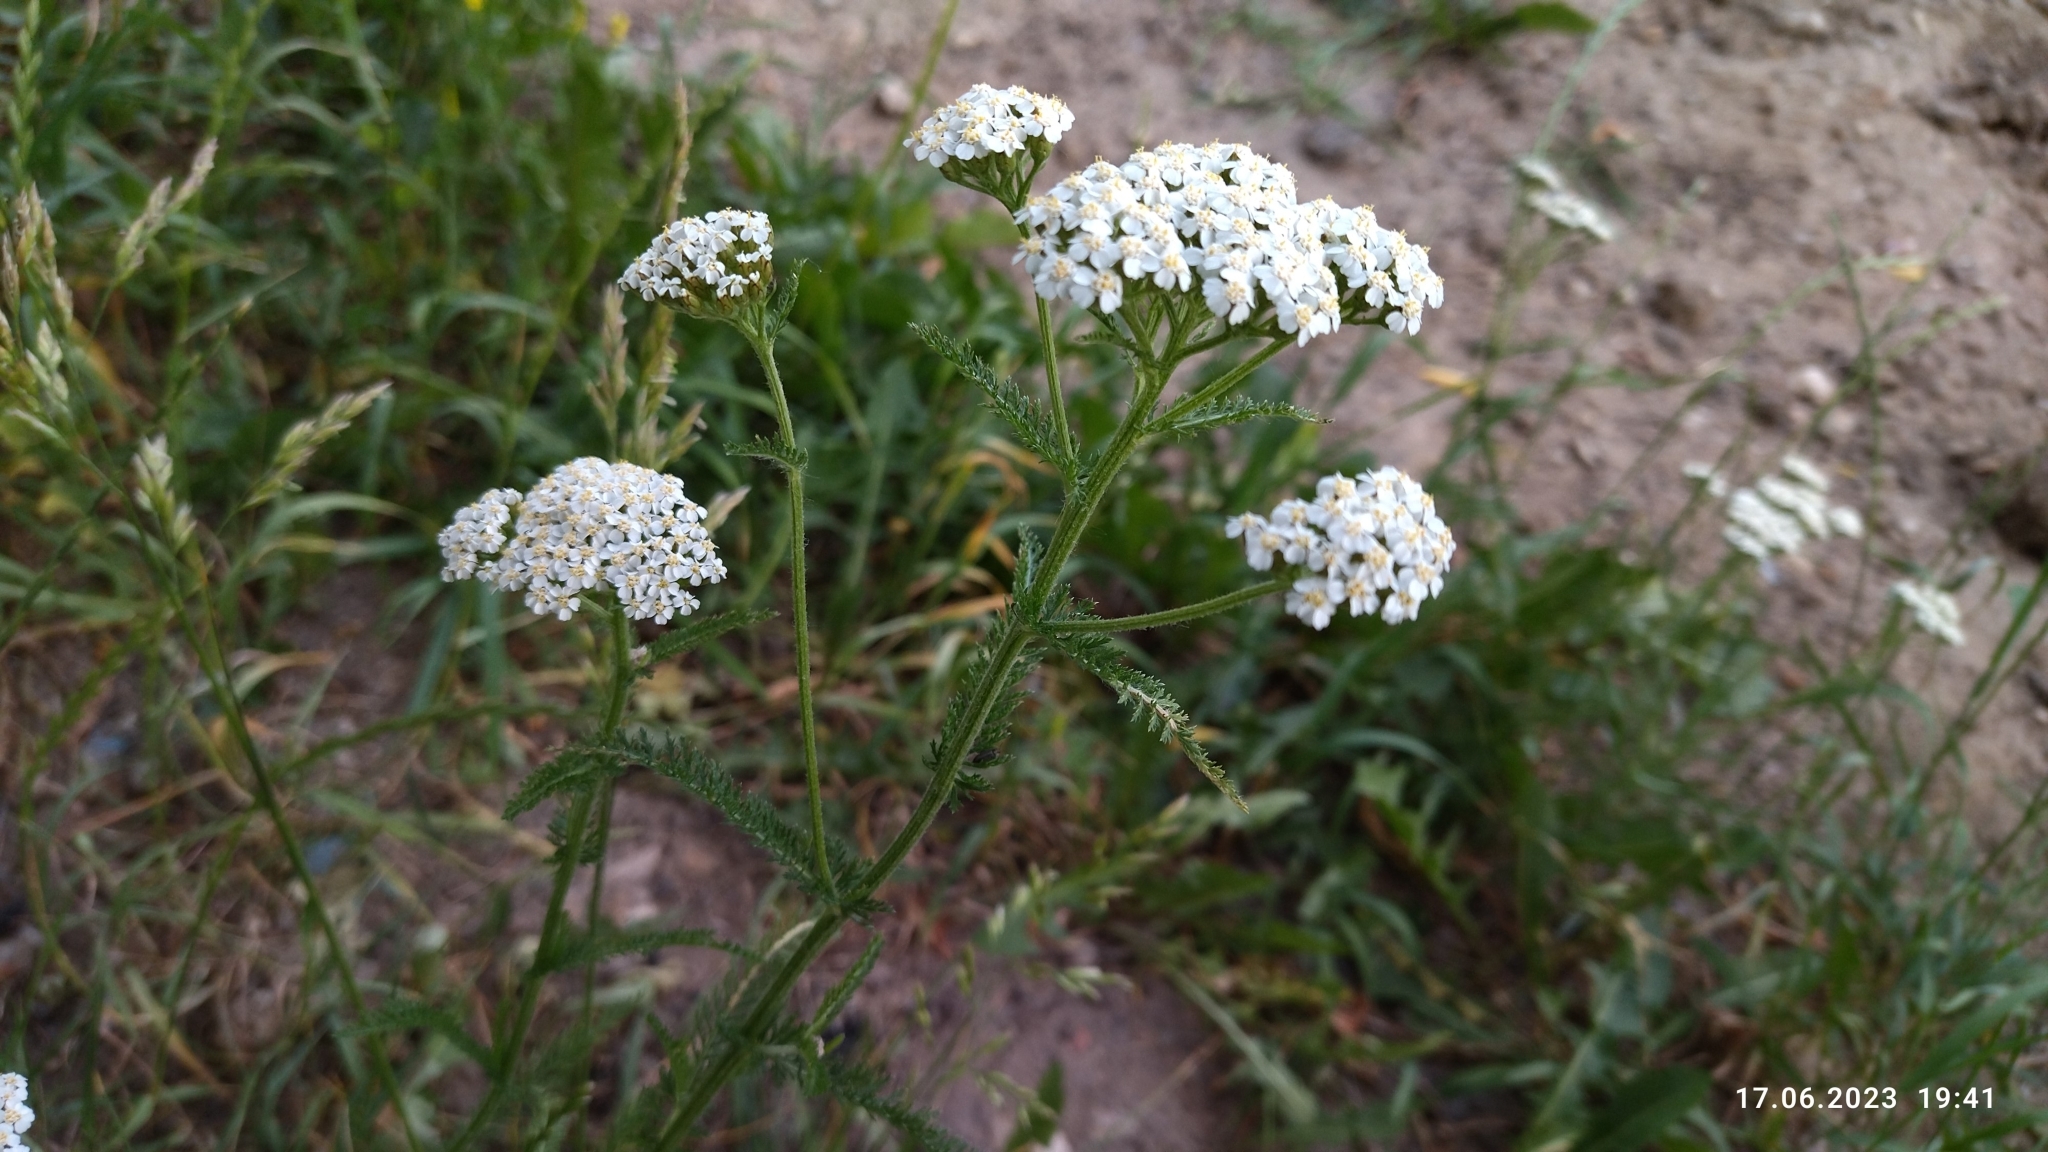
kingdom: Plantae
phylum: Tracheophyta
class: Magnoliopsida
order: Asterales
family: Asteraceae
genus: Achillea
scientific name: Achillea millefolium
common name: Yarrow
